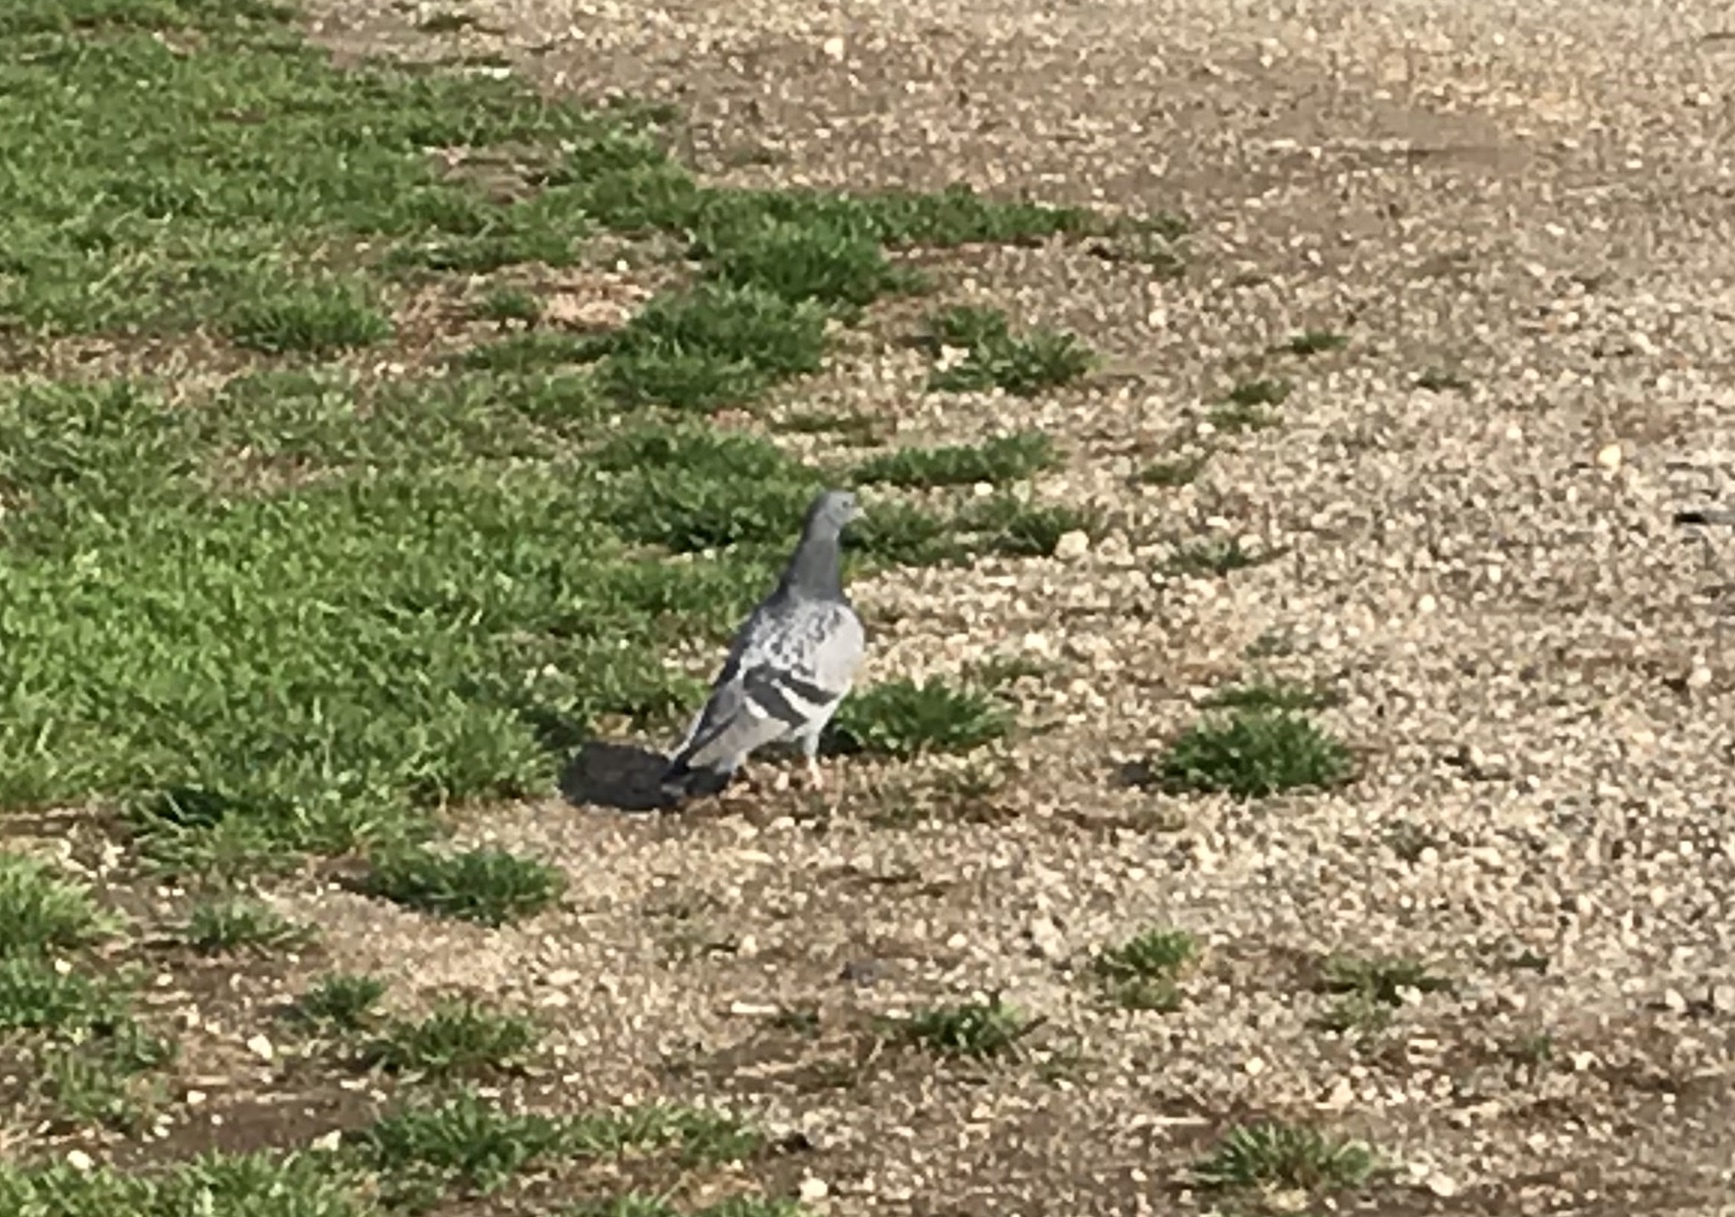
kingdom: Animalia
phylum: Chordata
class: Aves
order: Columbiformes
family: Columbidae
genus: Columba
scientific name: Columba livia
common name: Rock pigeon
